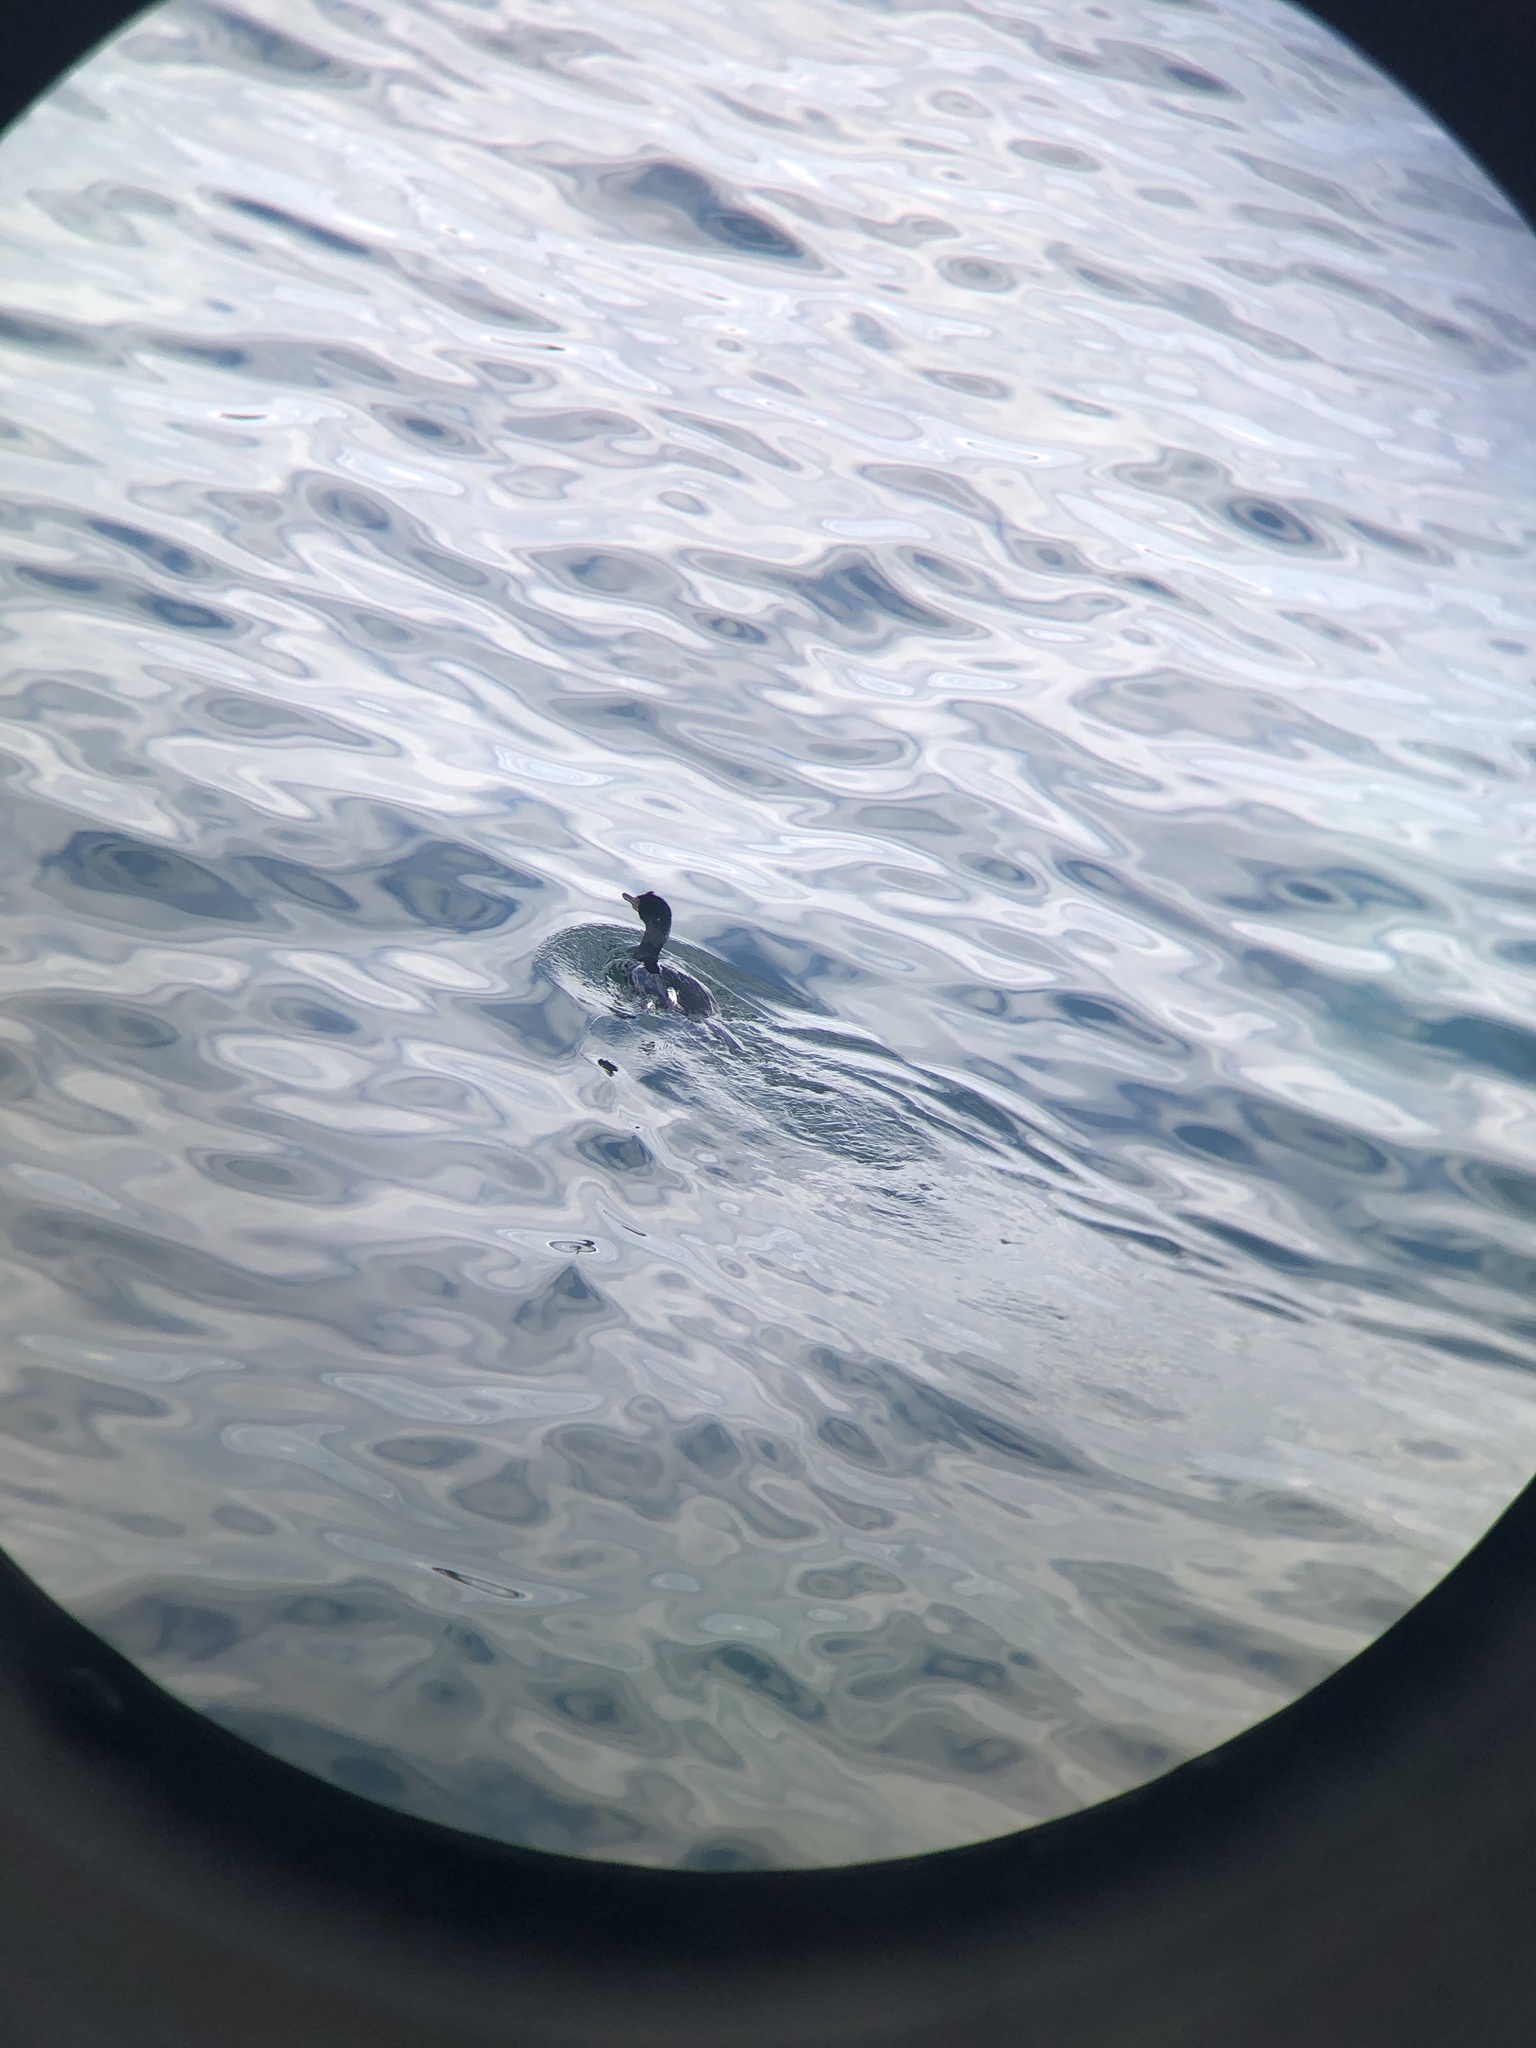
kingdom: Animalia
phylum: Chordata
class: Aves
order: Suliformes
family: Phalacrocoracidae
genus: Phalacrocorax
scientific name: Phalacrocorax pelagicus
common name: Pelagic cormorant
